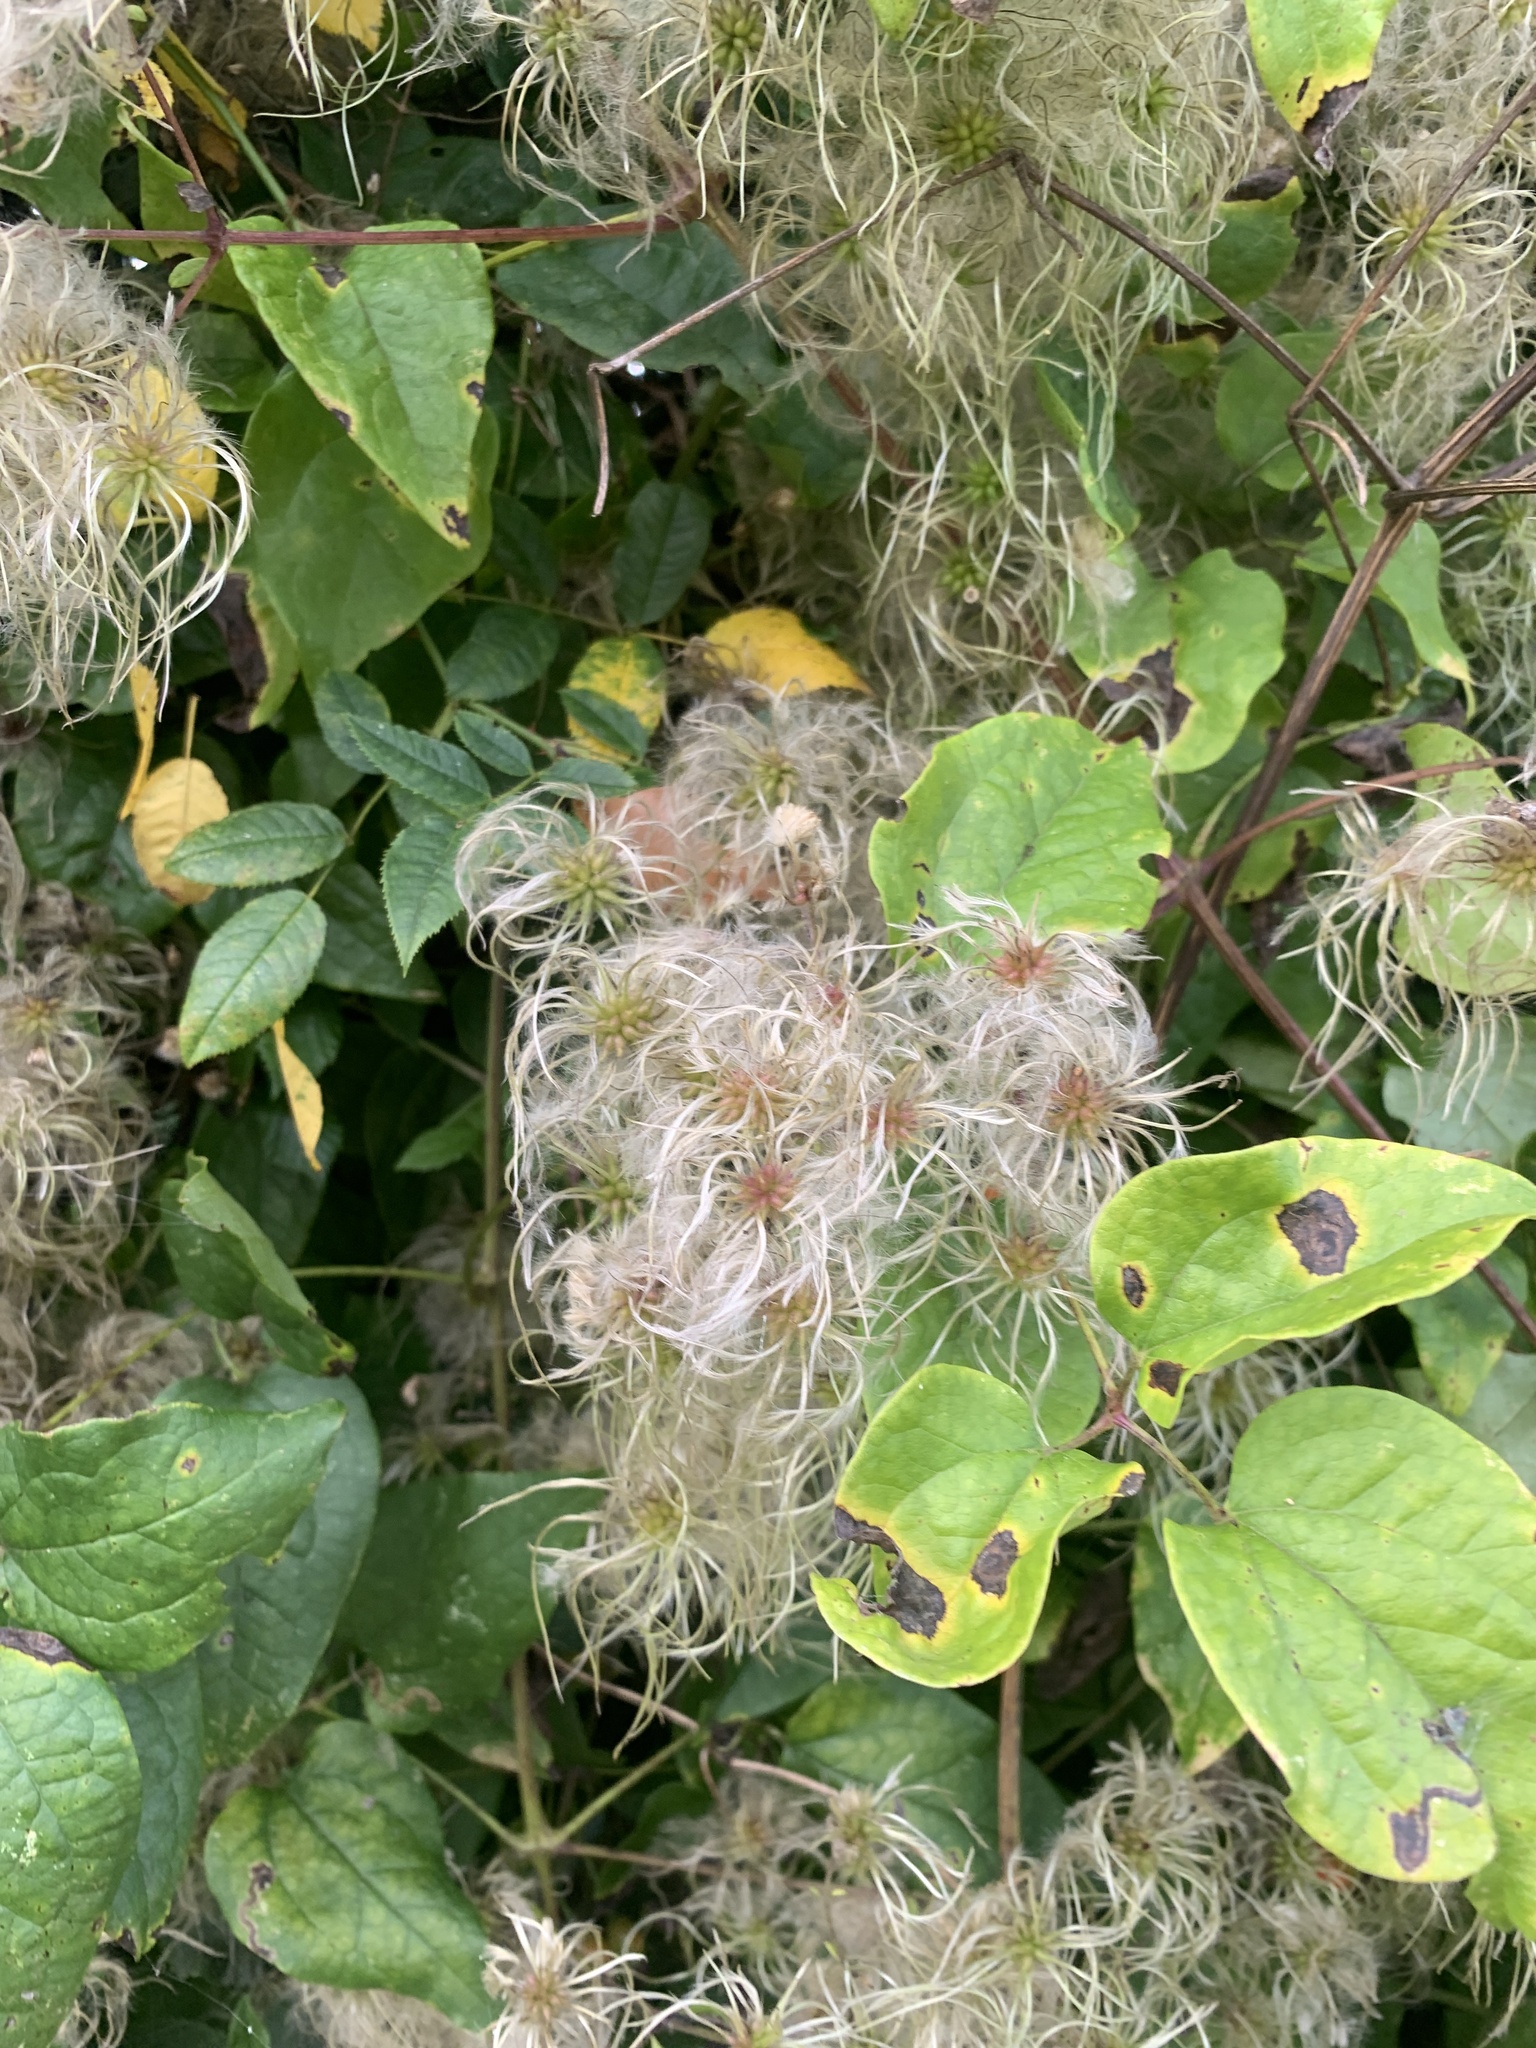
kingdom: Plantae
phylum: Tracheophyta
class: Magnoliopsida
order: Ranunculales
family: Ranunculaceae
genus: Clematis
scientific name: Clematis vitalba
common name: Evergreen clematis
